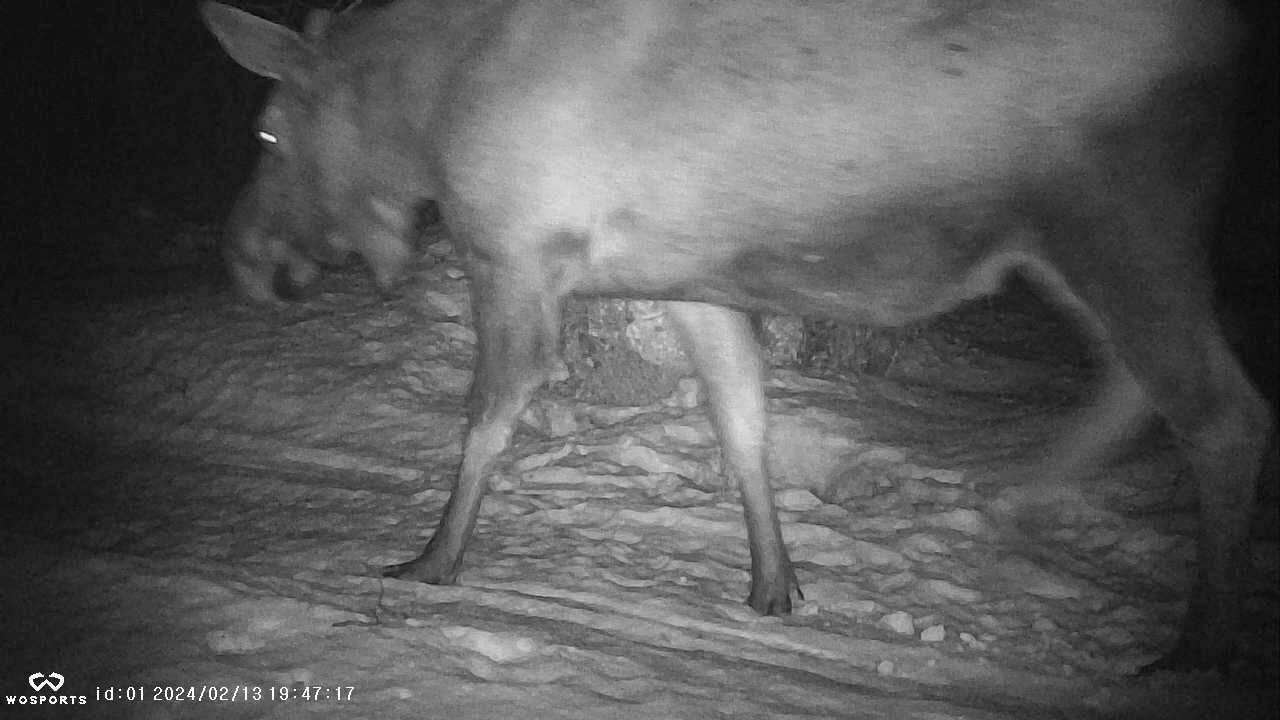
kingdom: Animalia
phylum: Chordata
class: Mammalia
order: Artiodactyla
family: Cervidae
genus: Alces
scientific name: Alces alces
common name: Moose
